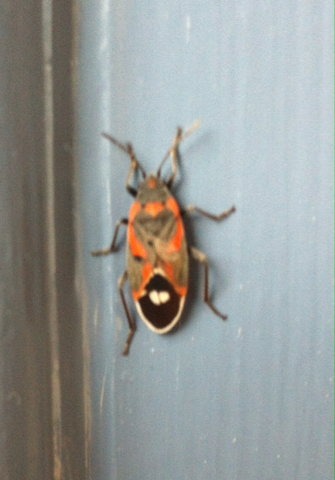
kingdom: Animalia
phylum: Arthropoda
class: Insecta
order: Hemiptera
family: Lygaeidae
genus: Lygaeus
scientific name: Lygaeus kalmii
